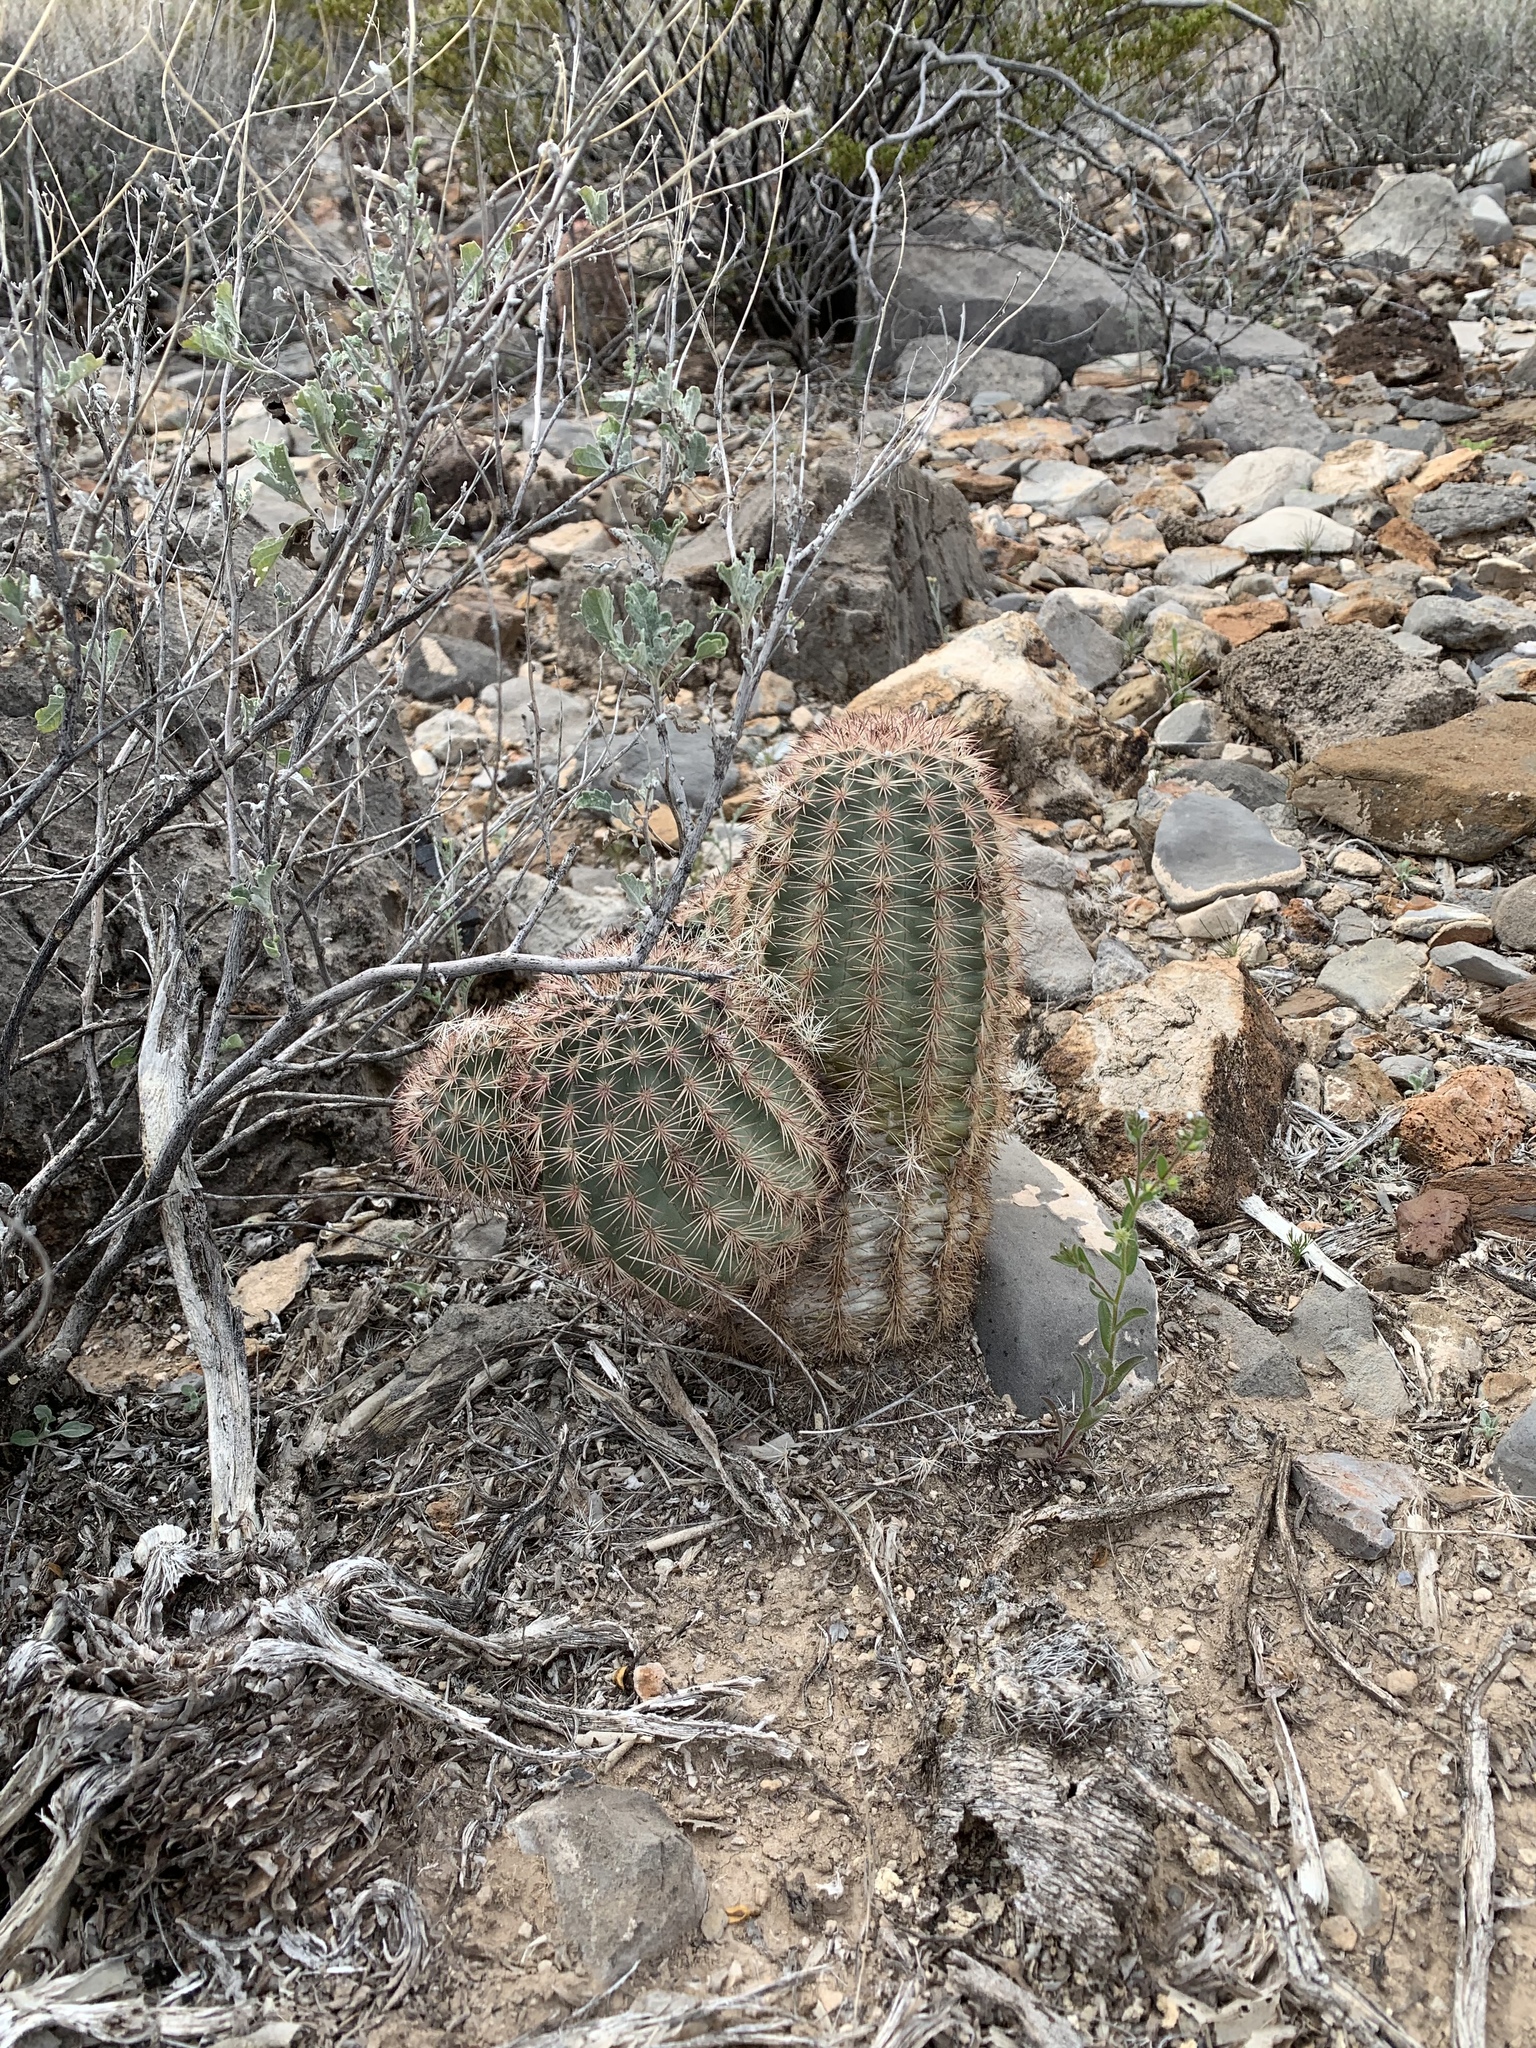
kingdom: Plantae
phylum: Tracheophyta
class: Magnoliopsida
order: Caryophyllales
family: Cactaceae
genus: Echinocereus
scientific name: Echinocereus dasyacanthus
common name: Spiny hedgehog cactus
